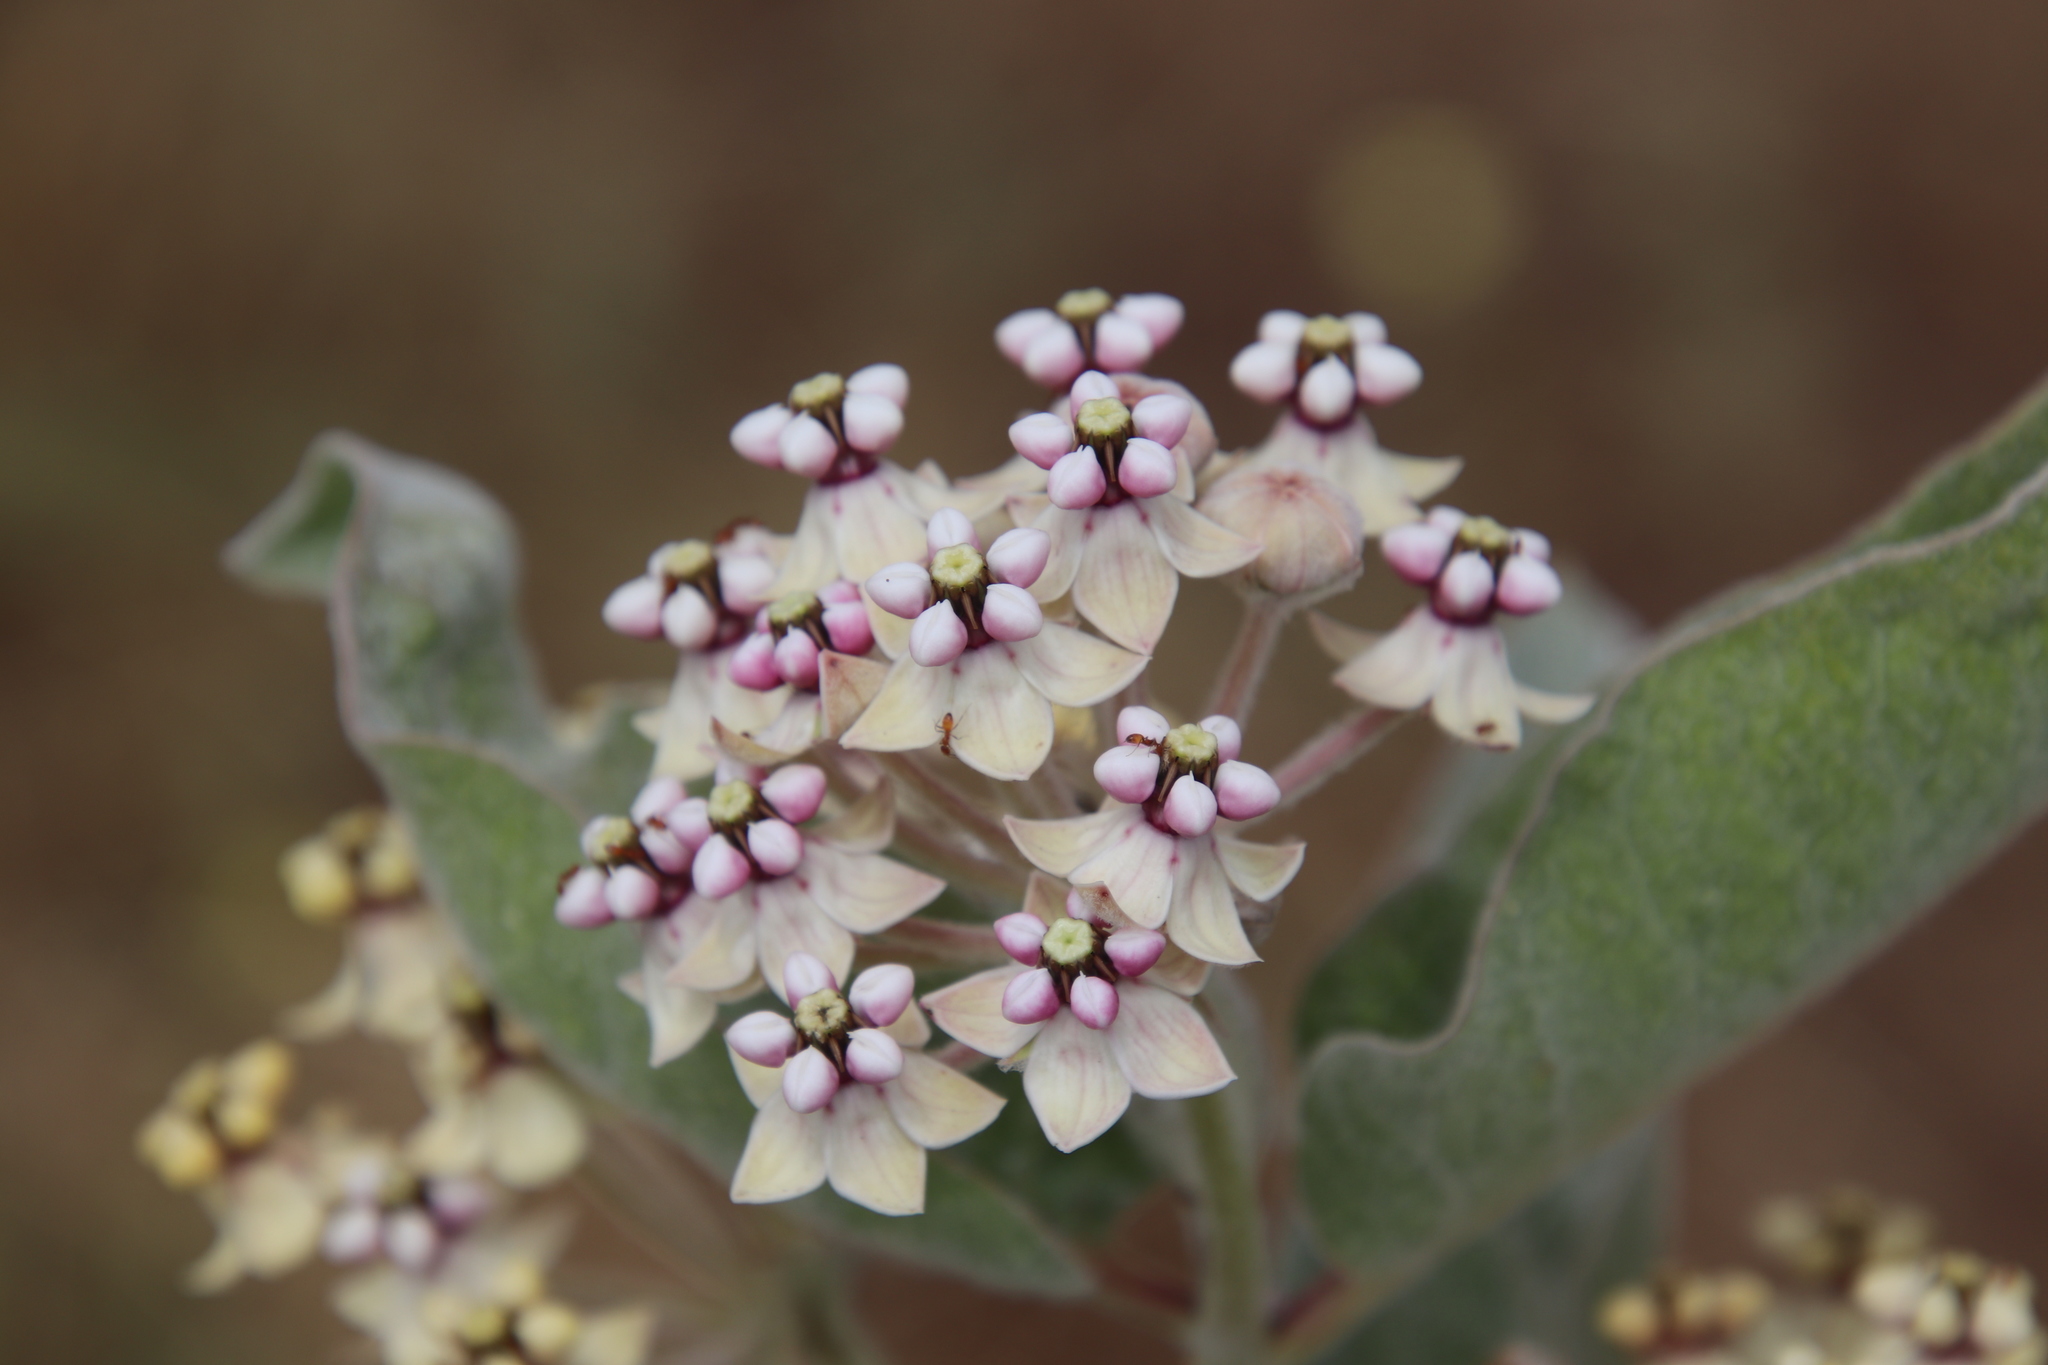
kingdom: Plantae
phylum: Tracheophyta
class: Magnoliopsida
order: Gentianales
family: Apocynaceae
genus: Asclepias
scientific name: Asclepias eriocarpa
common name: Indian milkweed
